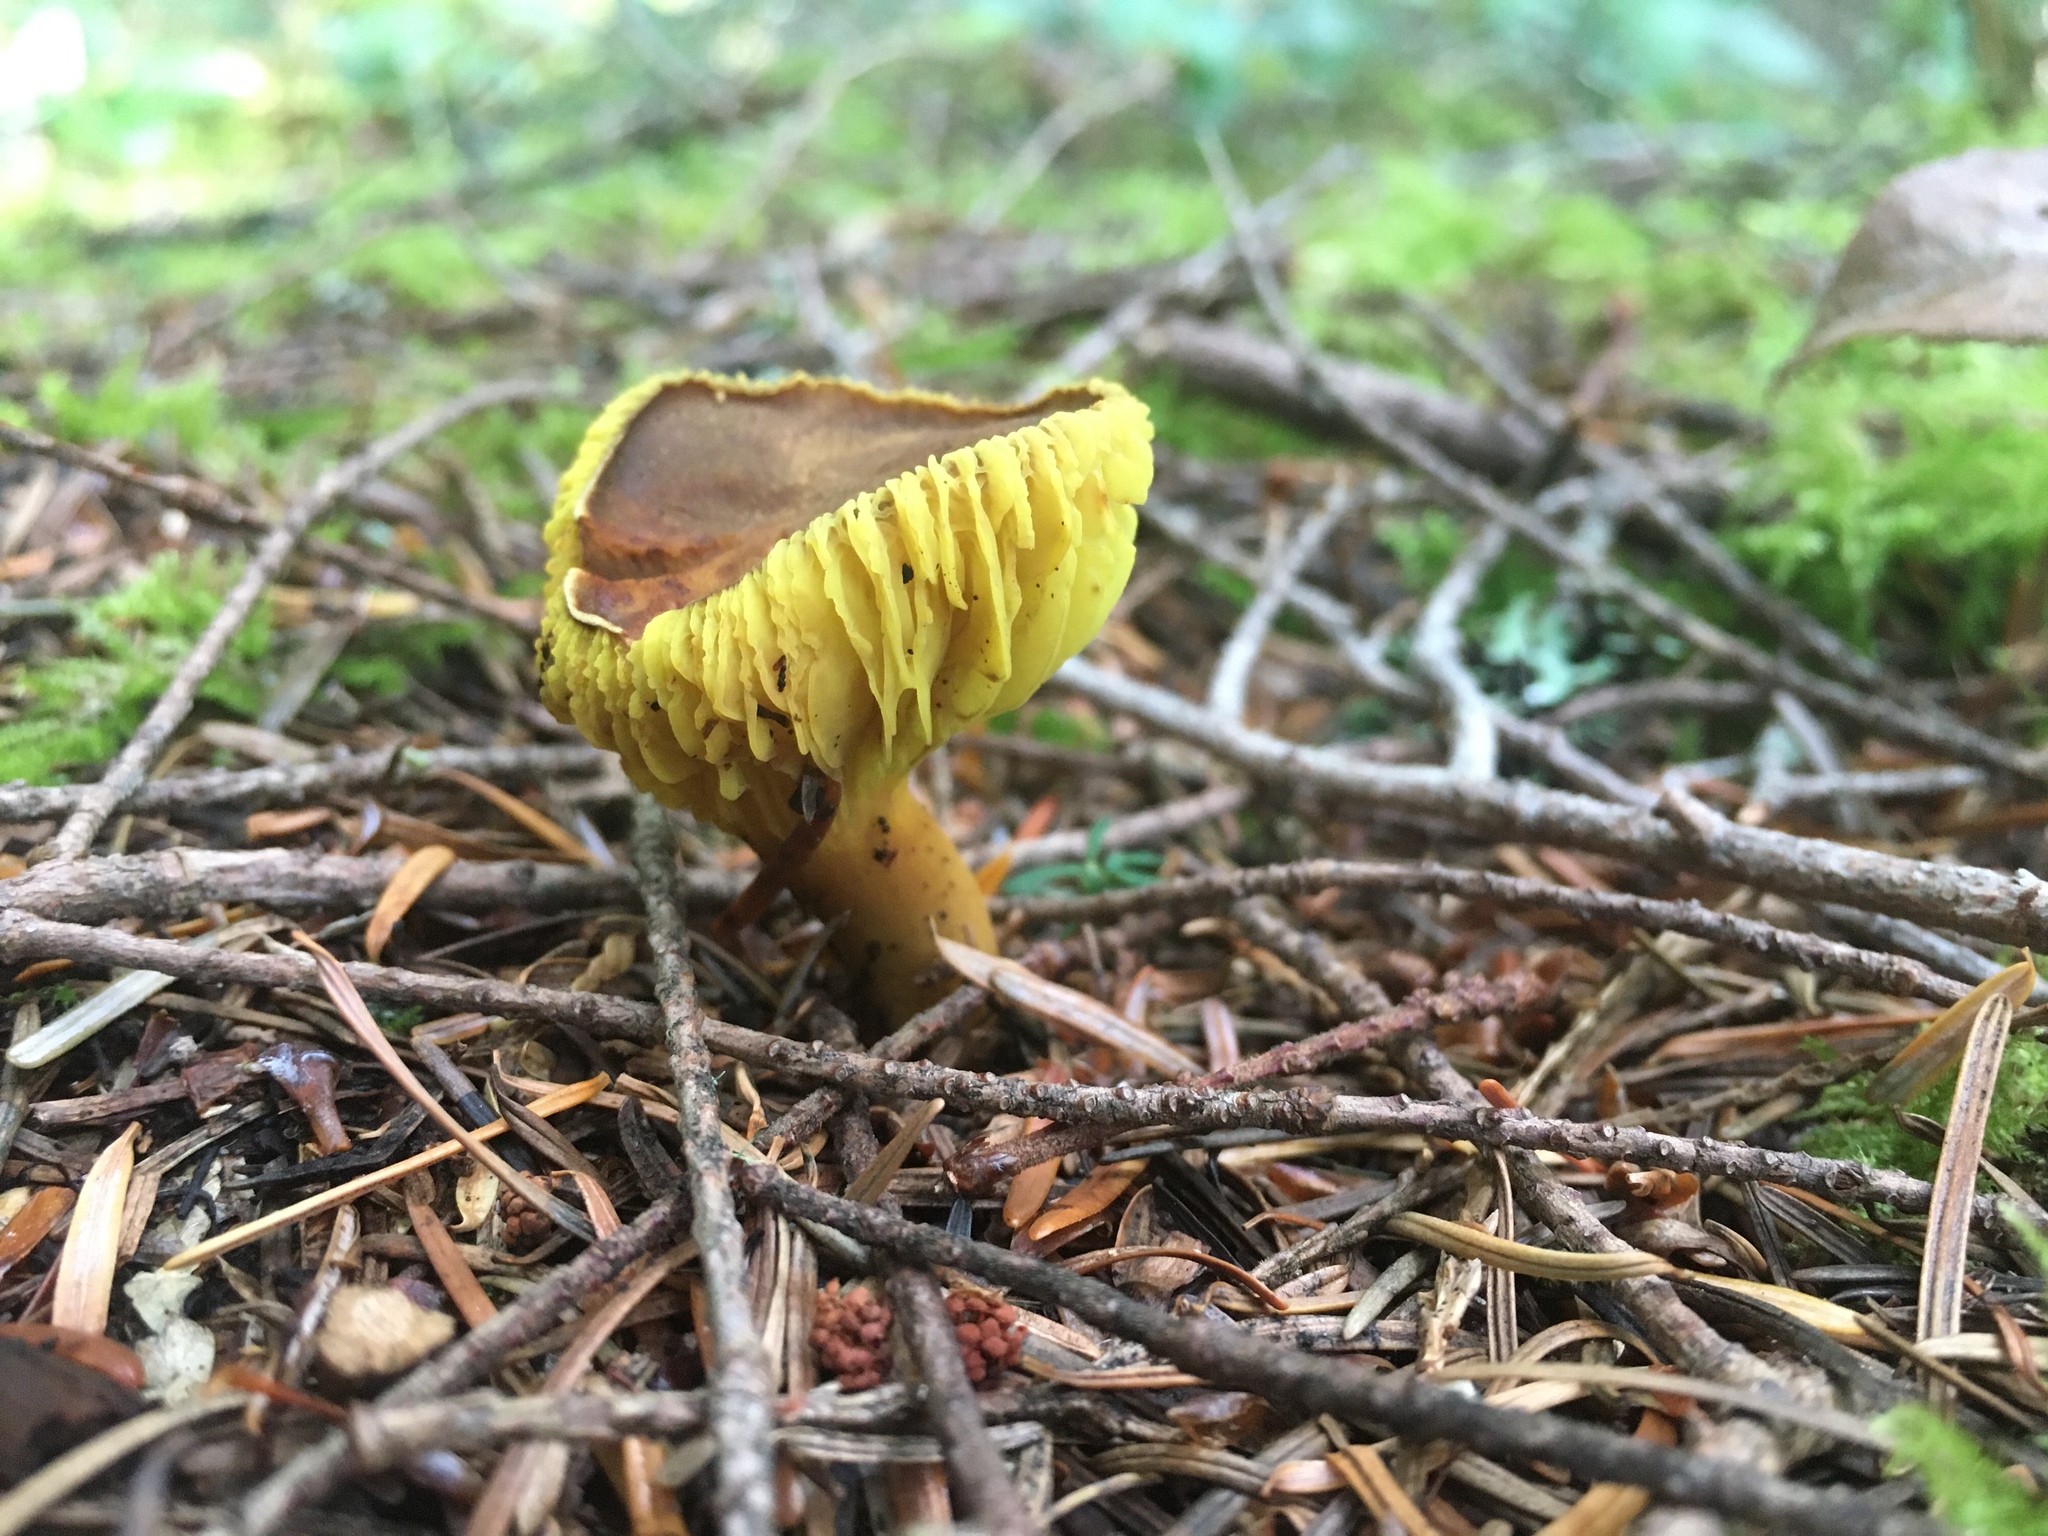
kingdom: Fungi
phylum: Basidiomycota
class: Agaricomycetes
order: Boletales
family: Boletaceae
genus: Phylloporus
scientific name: Phylloporus arenicola
